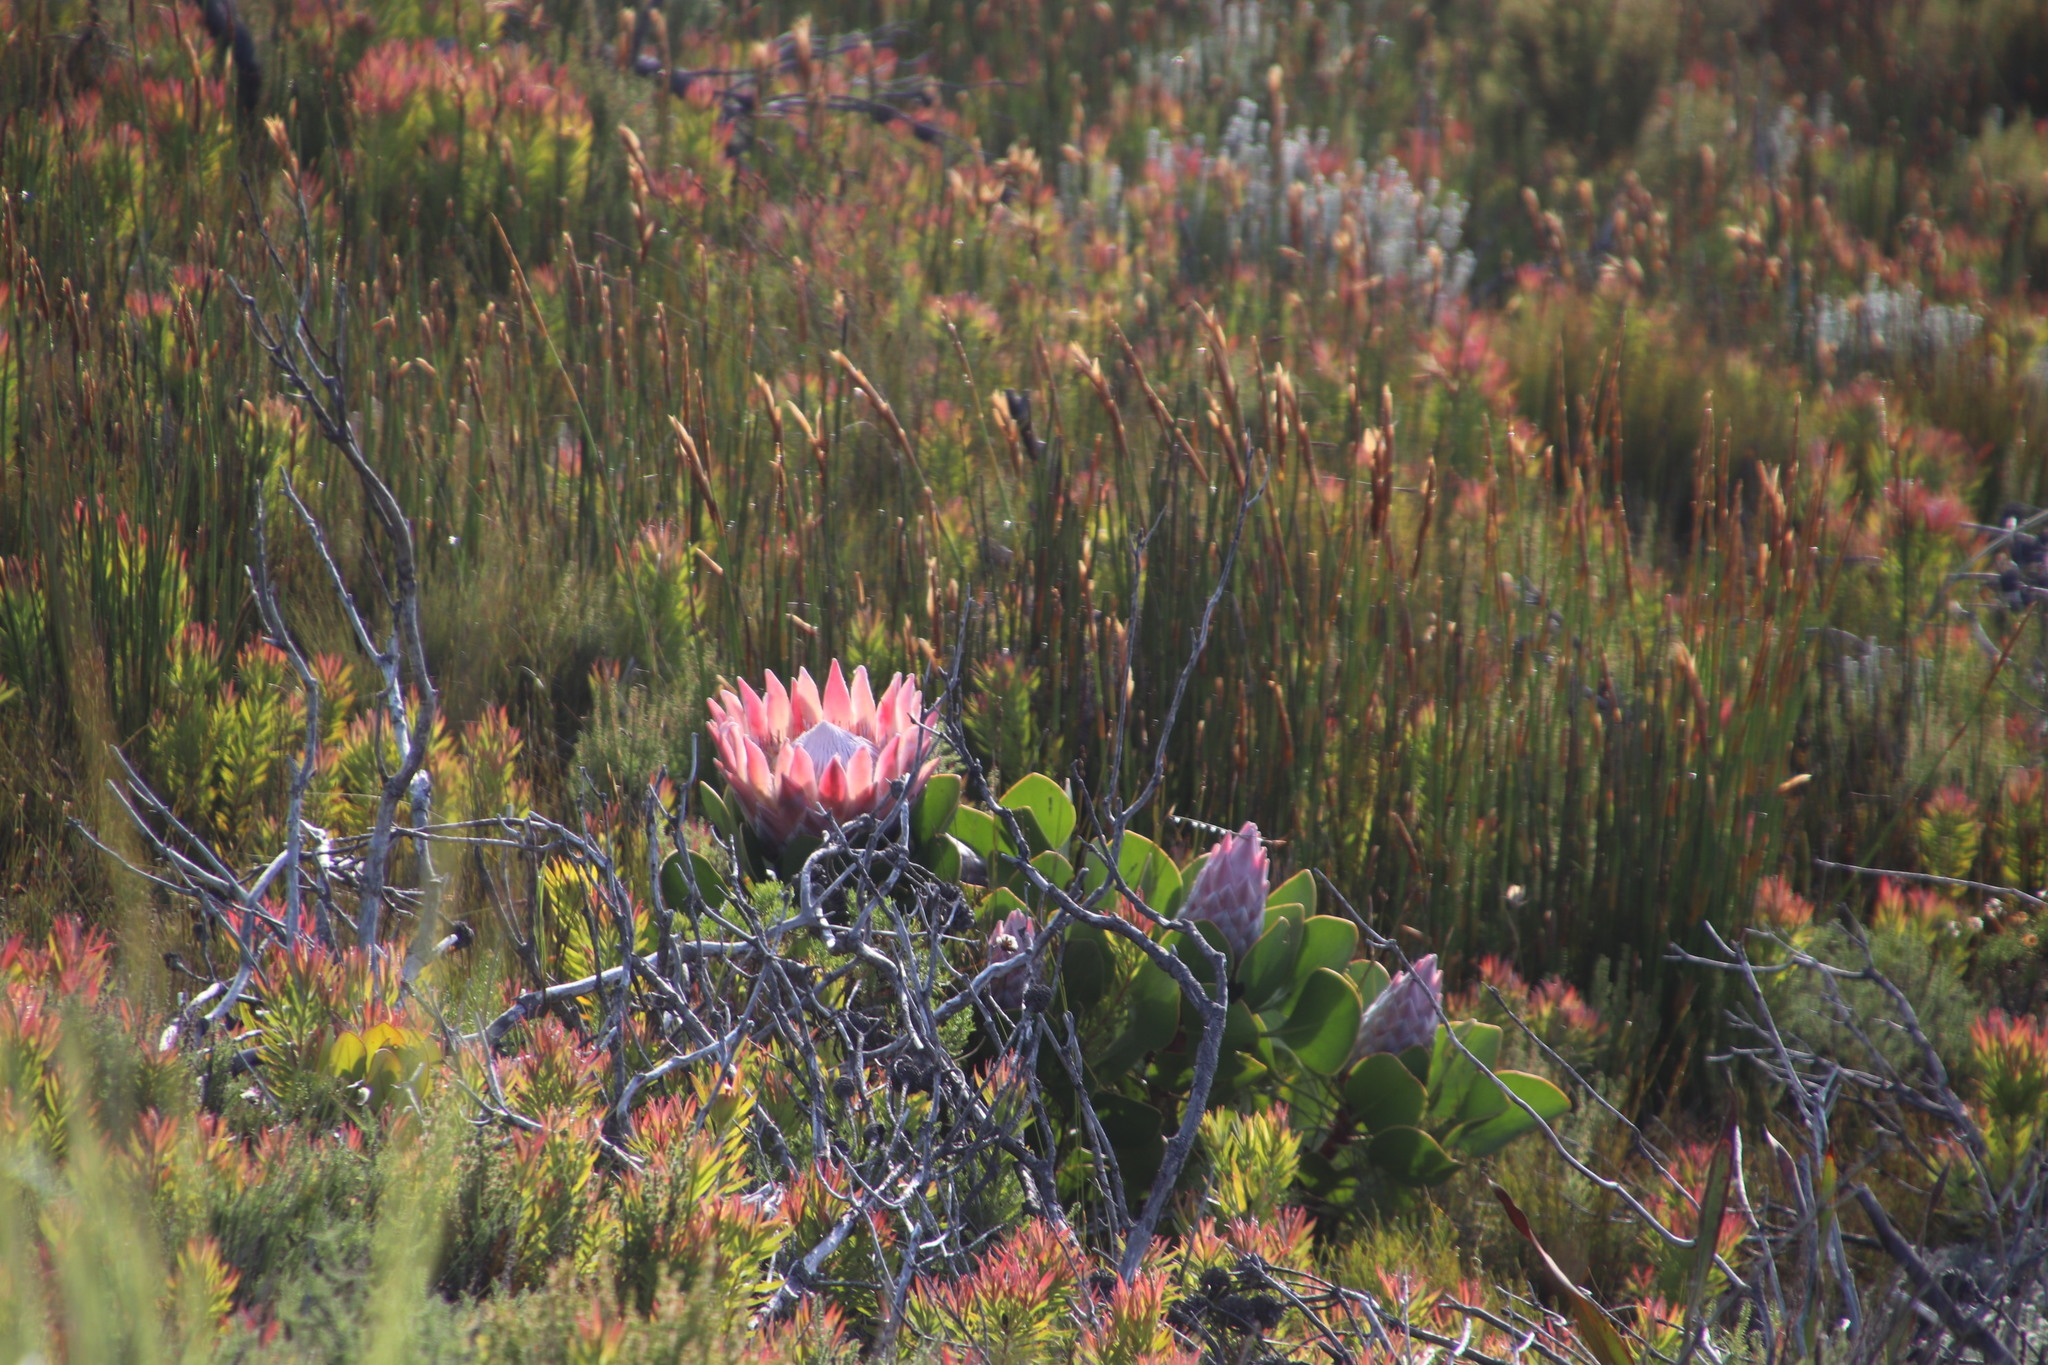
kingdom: Plantae
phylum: Tracheophyta
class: Magnoliopsida
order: Proteales
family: Proteaceae
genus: Protea
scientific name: Protea cynaroides
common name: King protea
